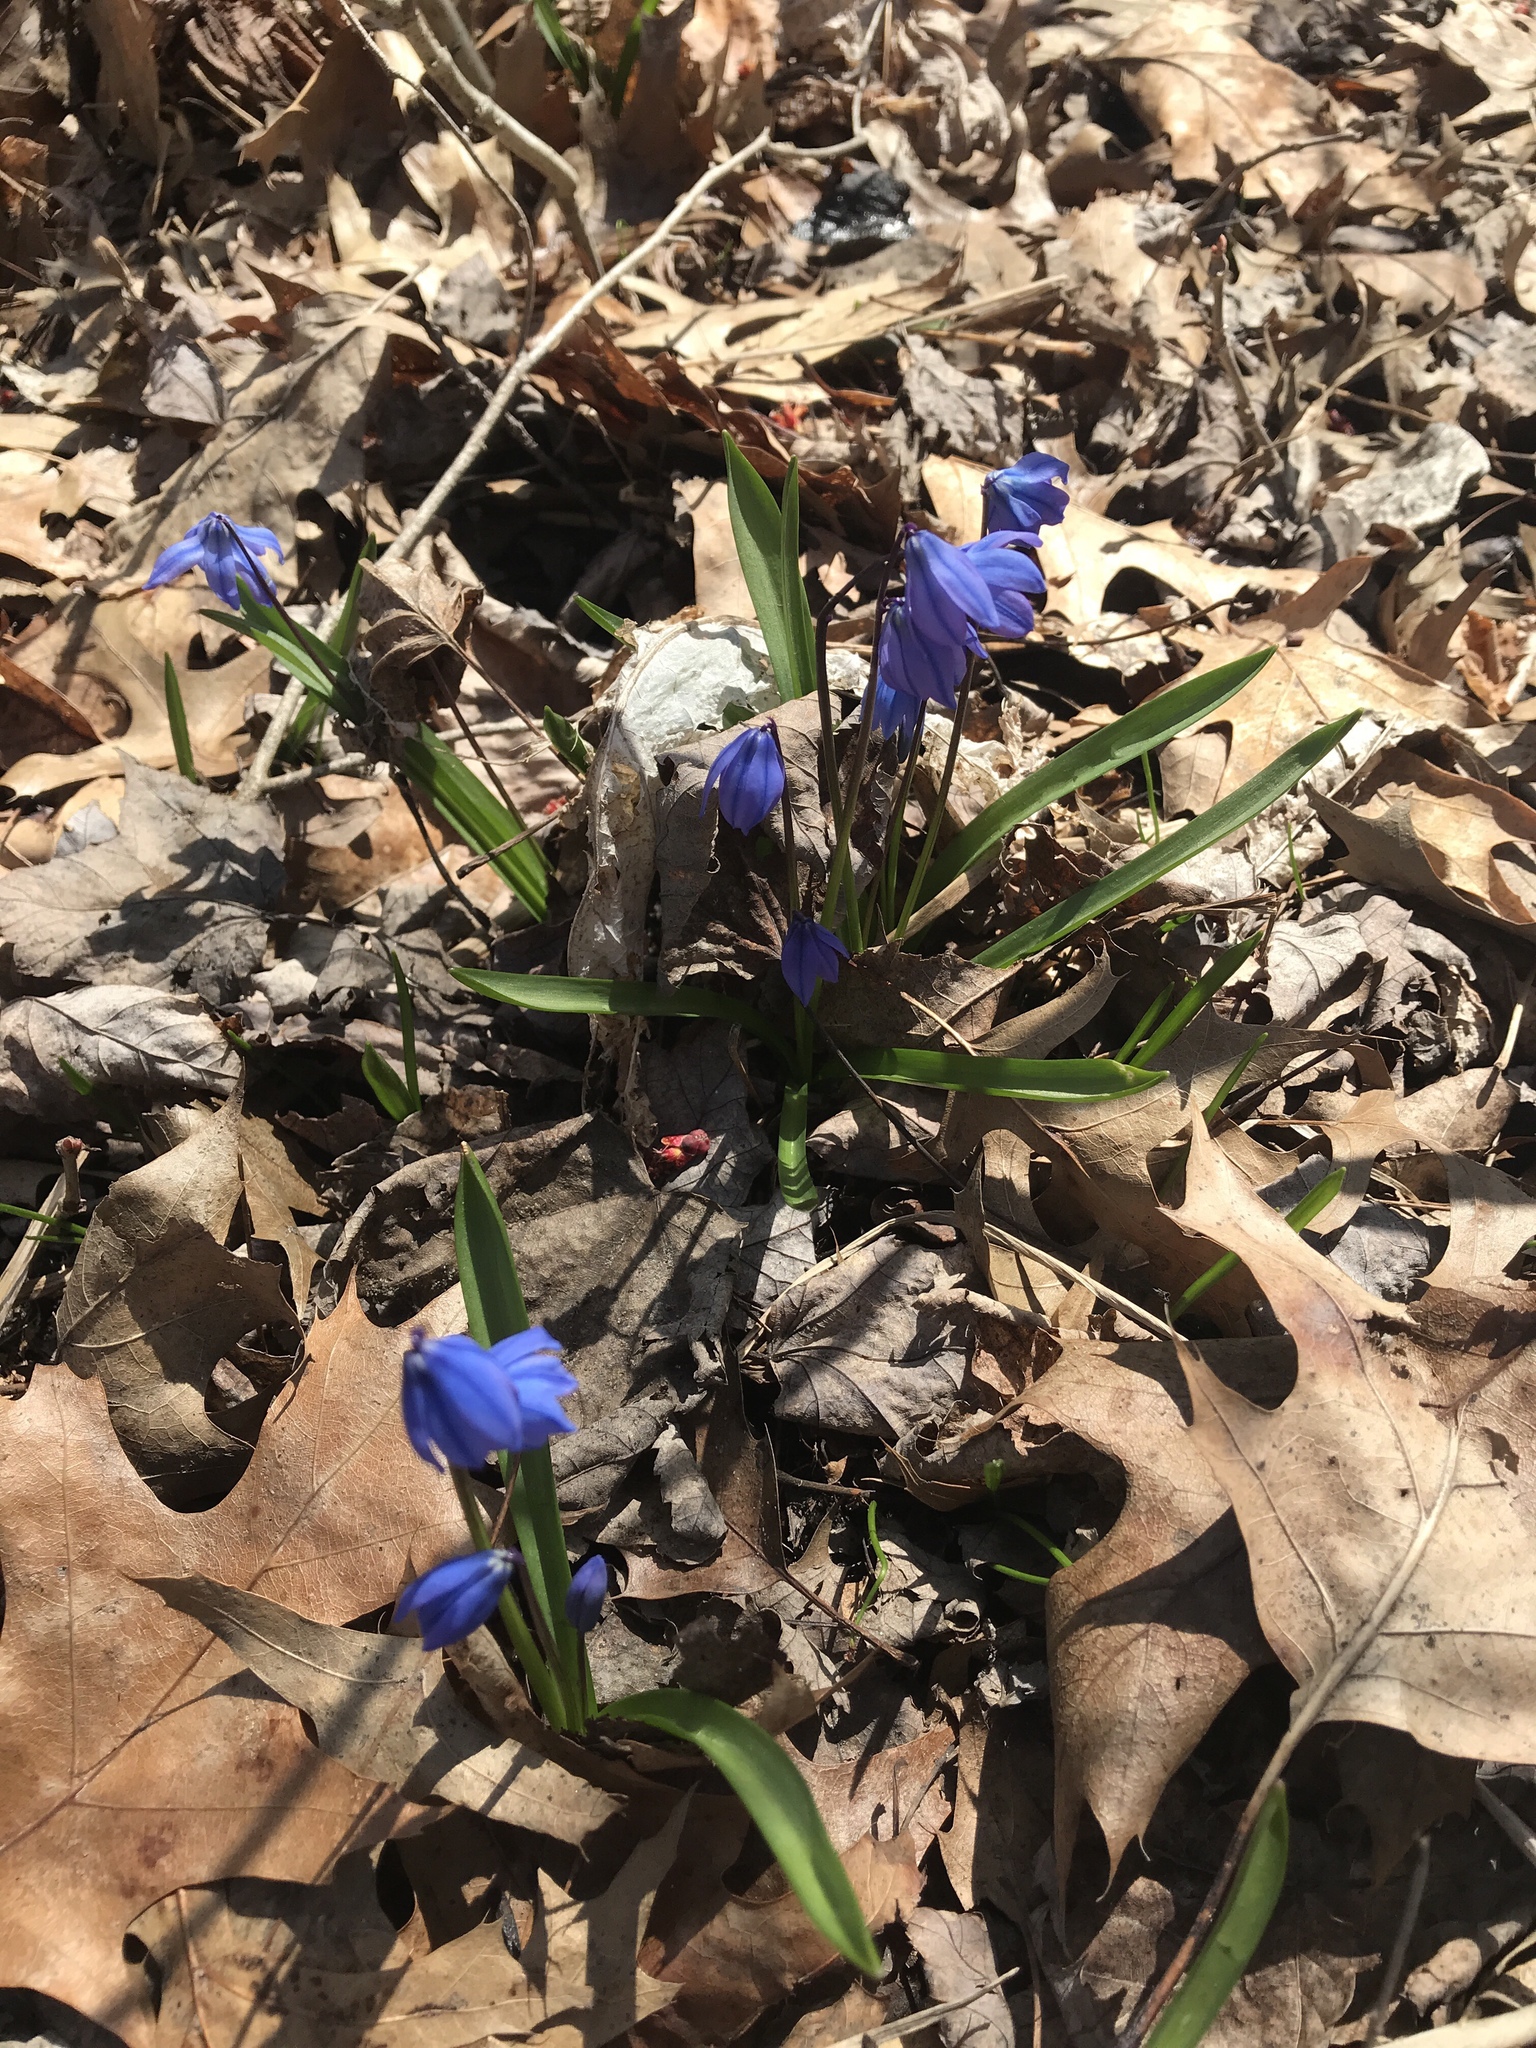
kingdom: Plantae
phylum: Tracheophyta
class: Liliopsida
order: Asparagales
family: Asparagaceae
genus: Scilla
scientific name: Scilla siberica
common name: Siberian squill
